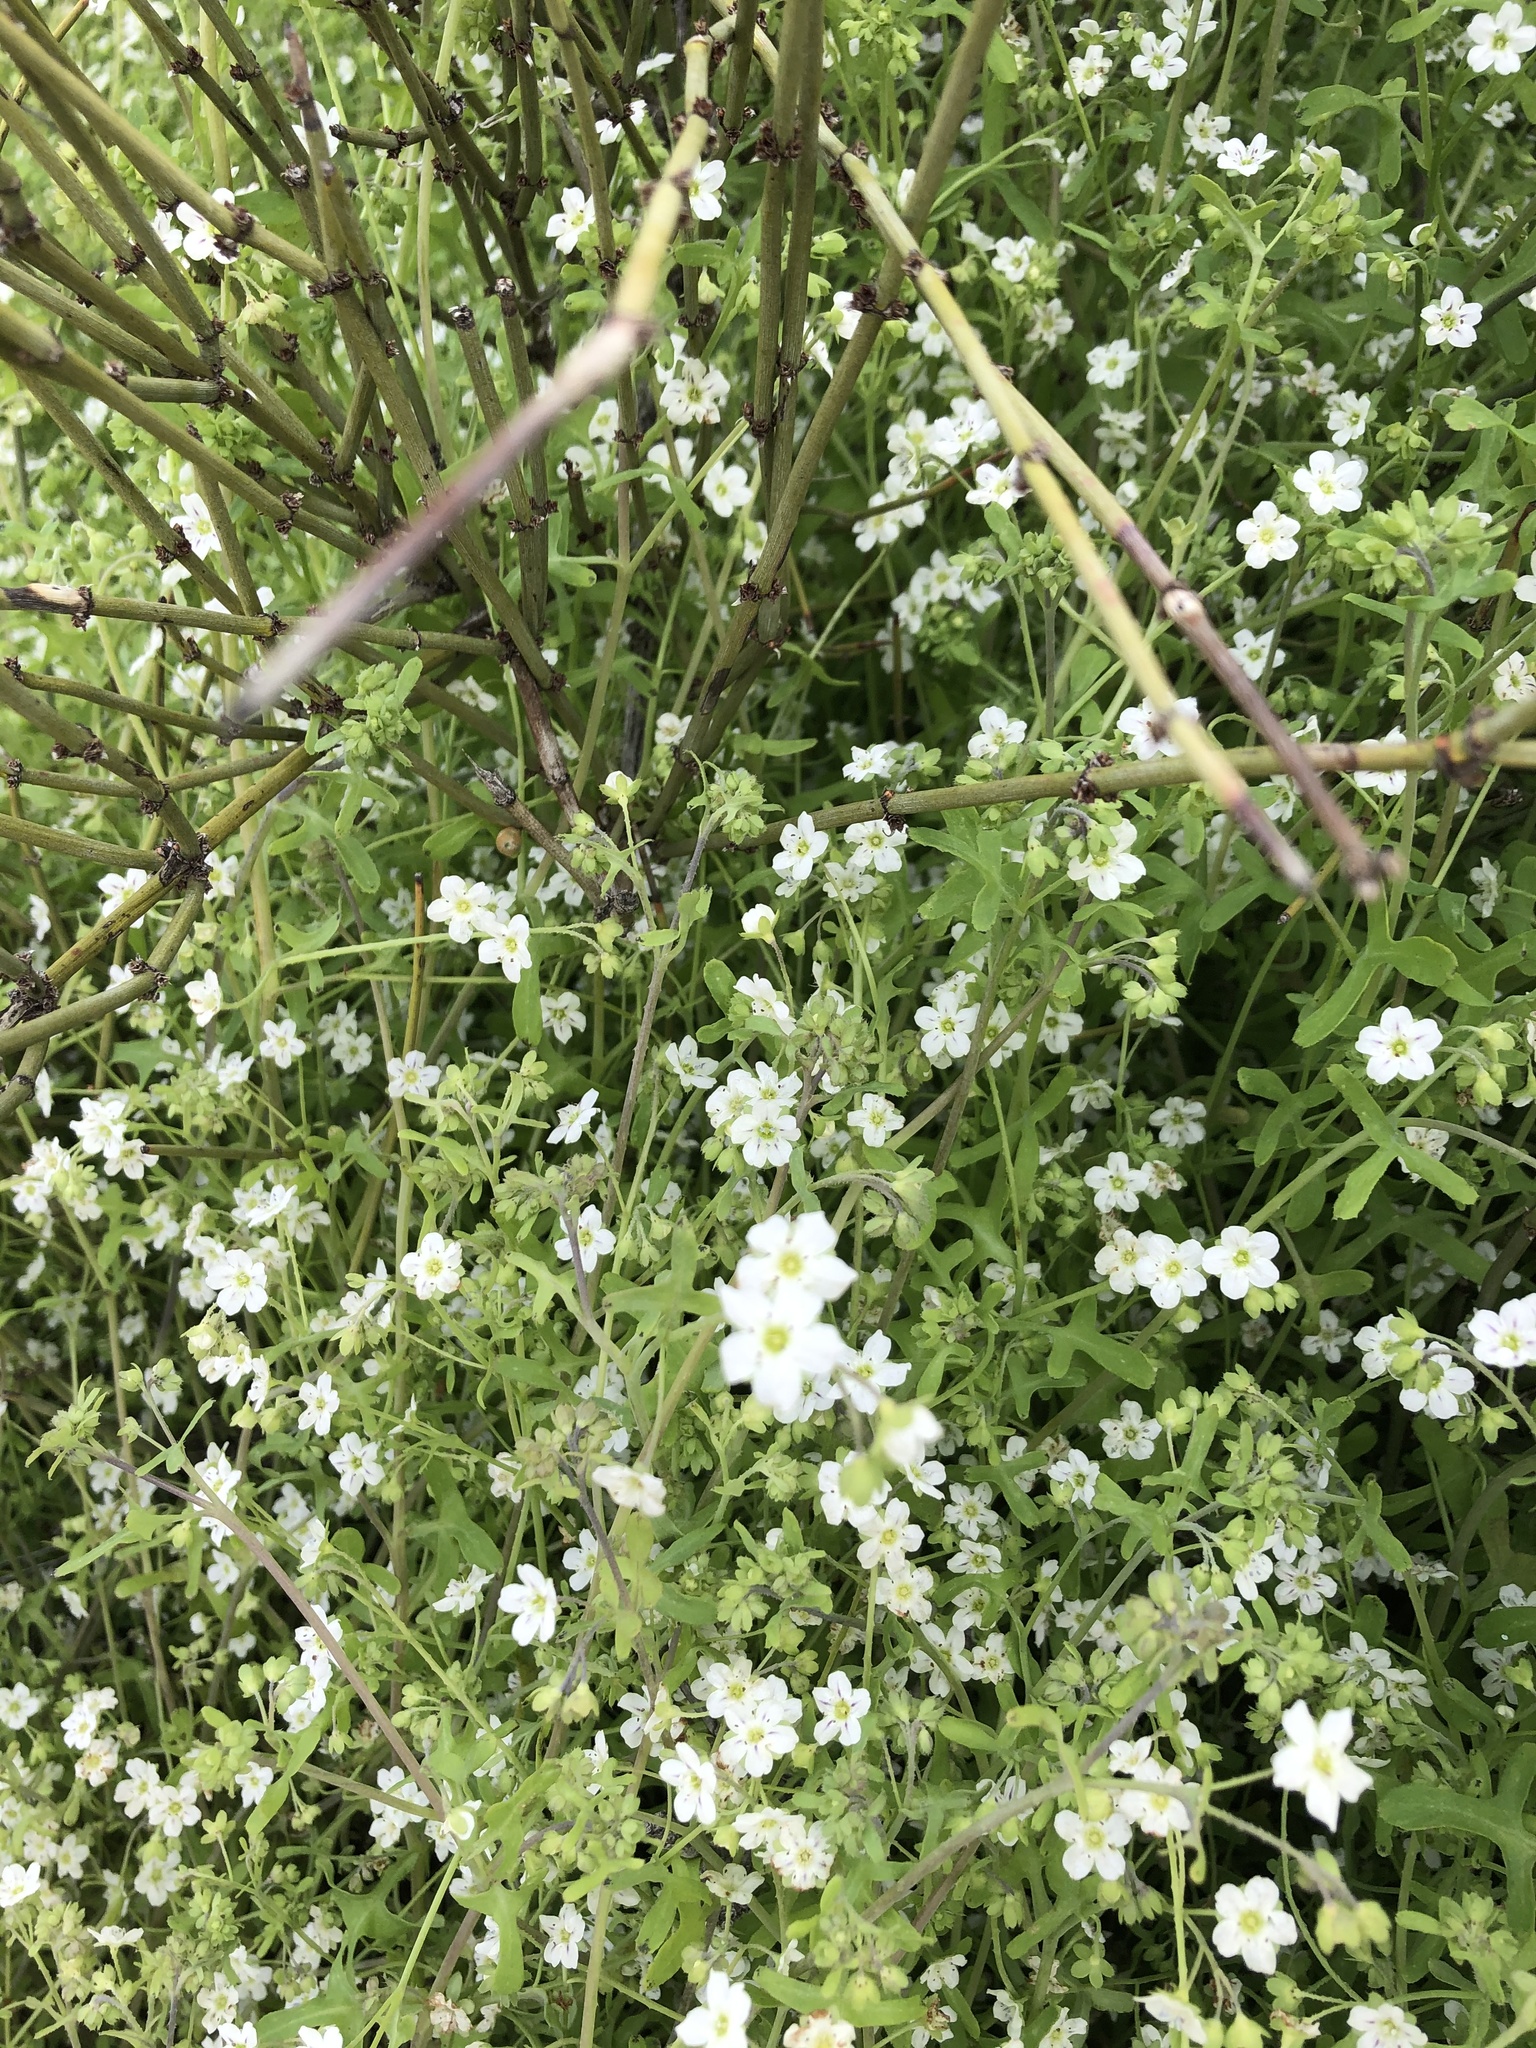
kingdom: Plantae
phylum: Tracheophyta
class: Magnoliopsida
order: Boraginales
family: Hydrophyllaceae
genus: Pholistoma
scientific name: Pholistoma membranaceum
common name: White fiesta-flower
